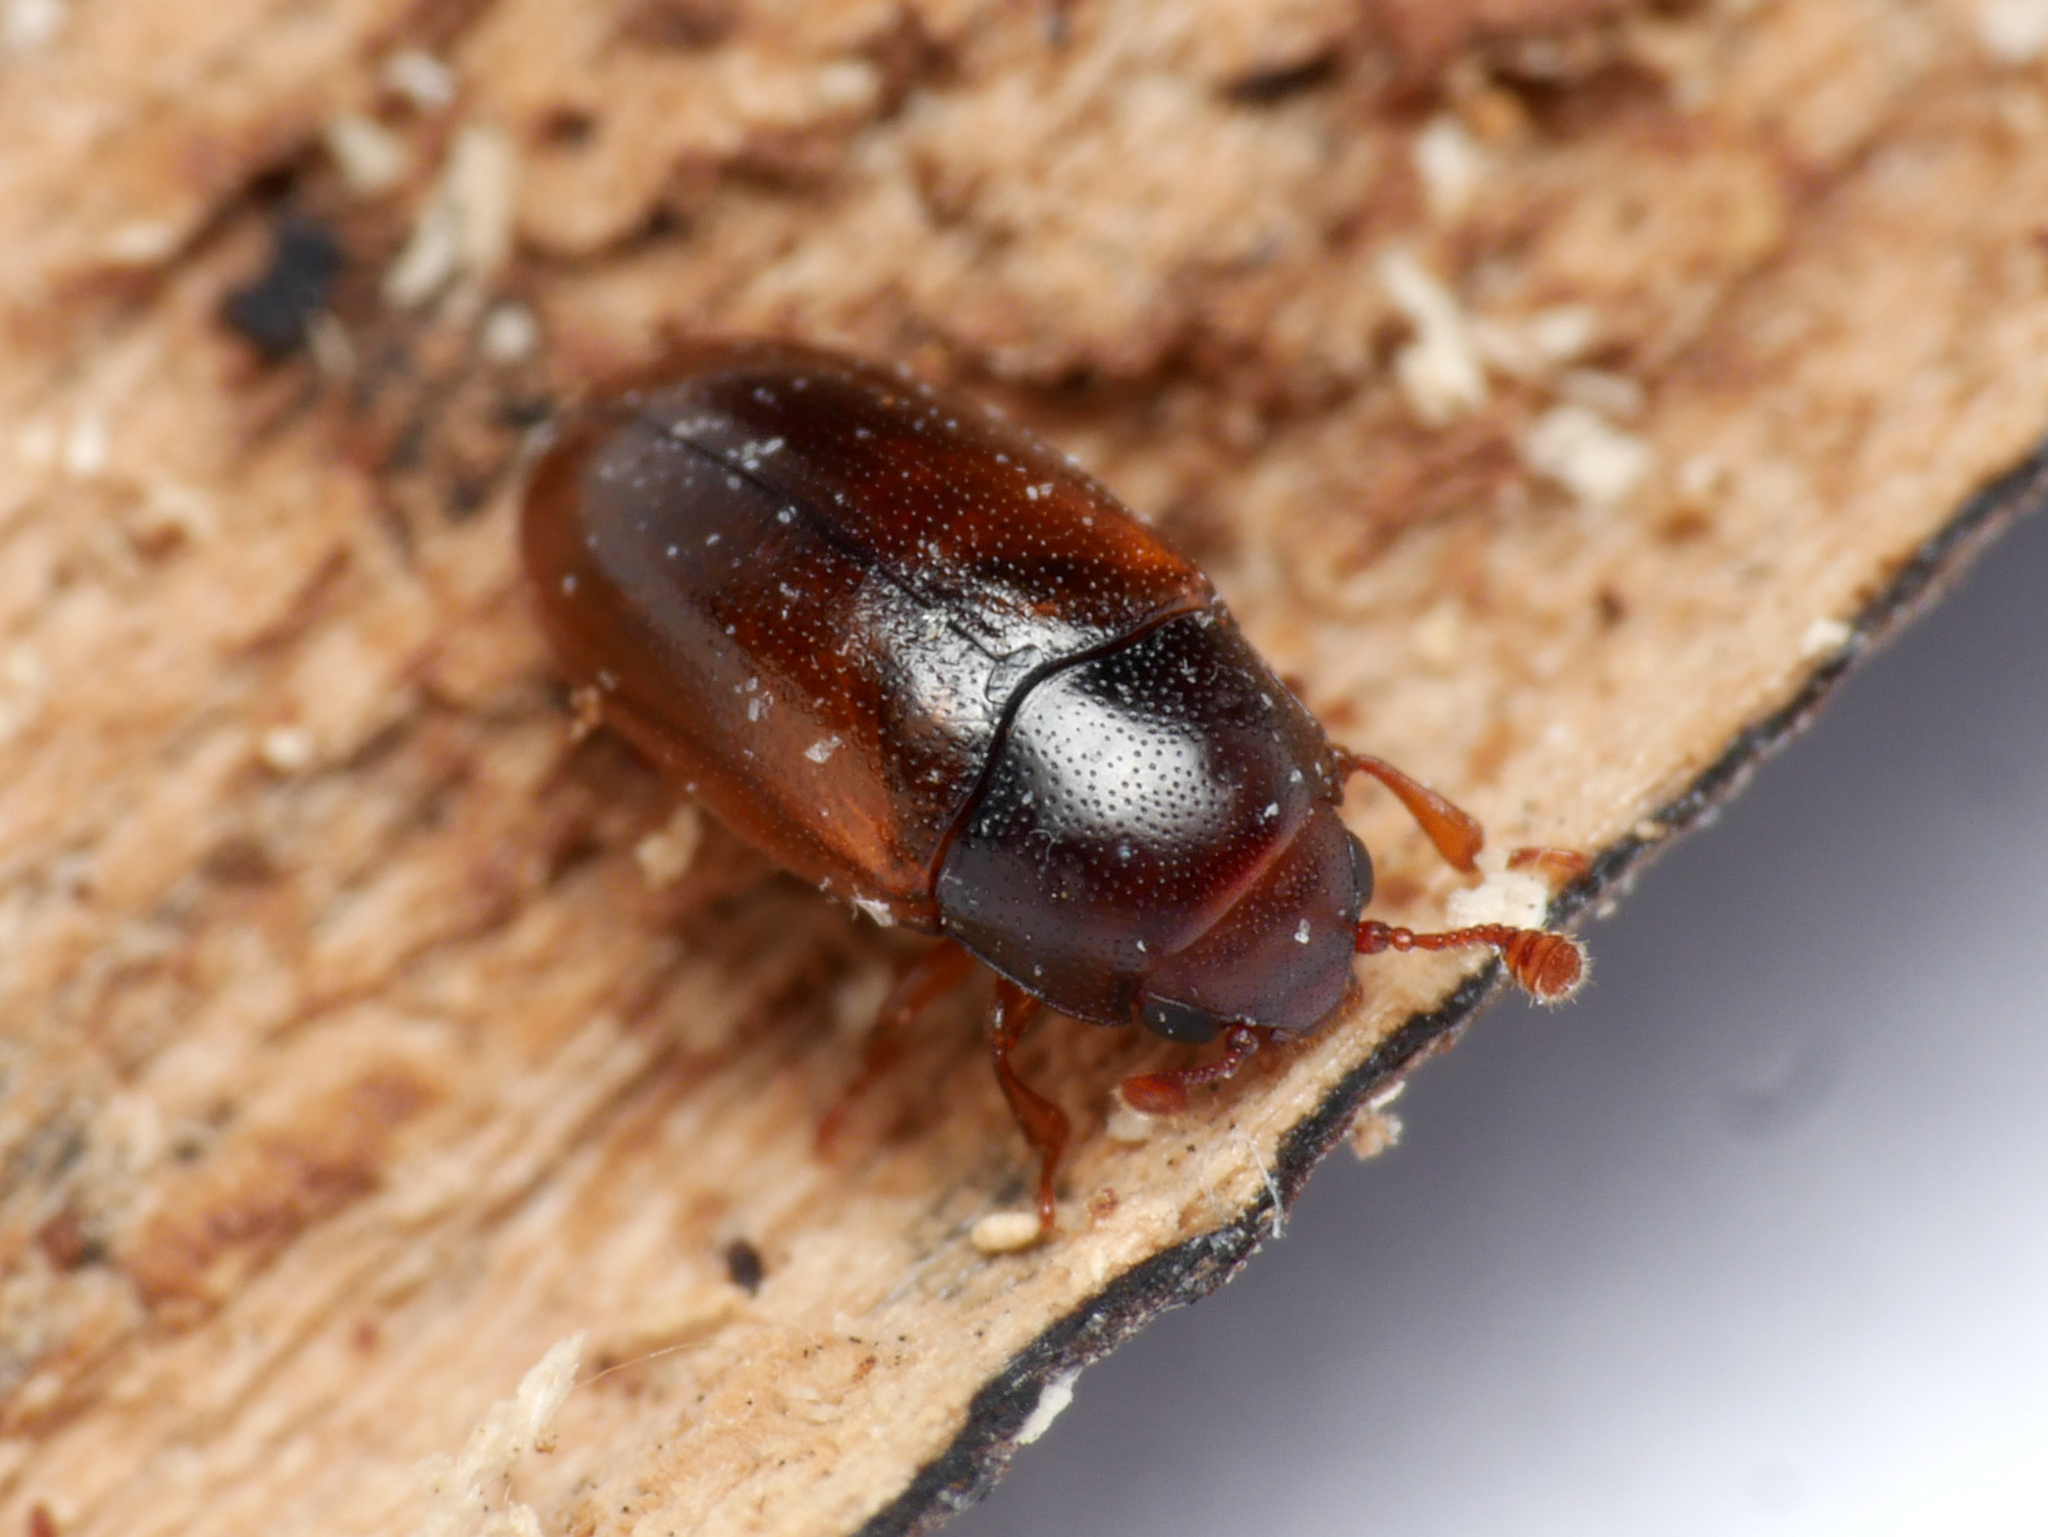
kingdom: Animalia
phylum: Arthropoda
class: Insecta
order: Coleoptera
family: Erotylidae
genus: Dacne
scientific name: Dacne rufifrons
